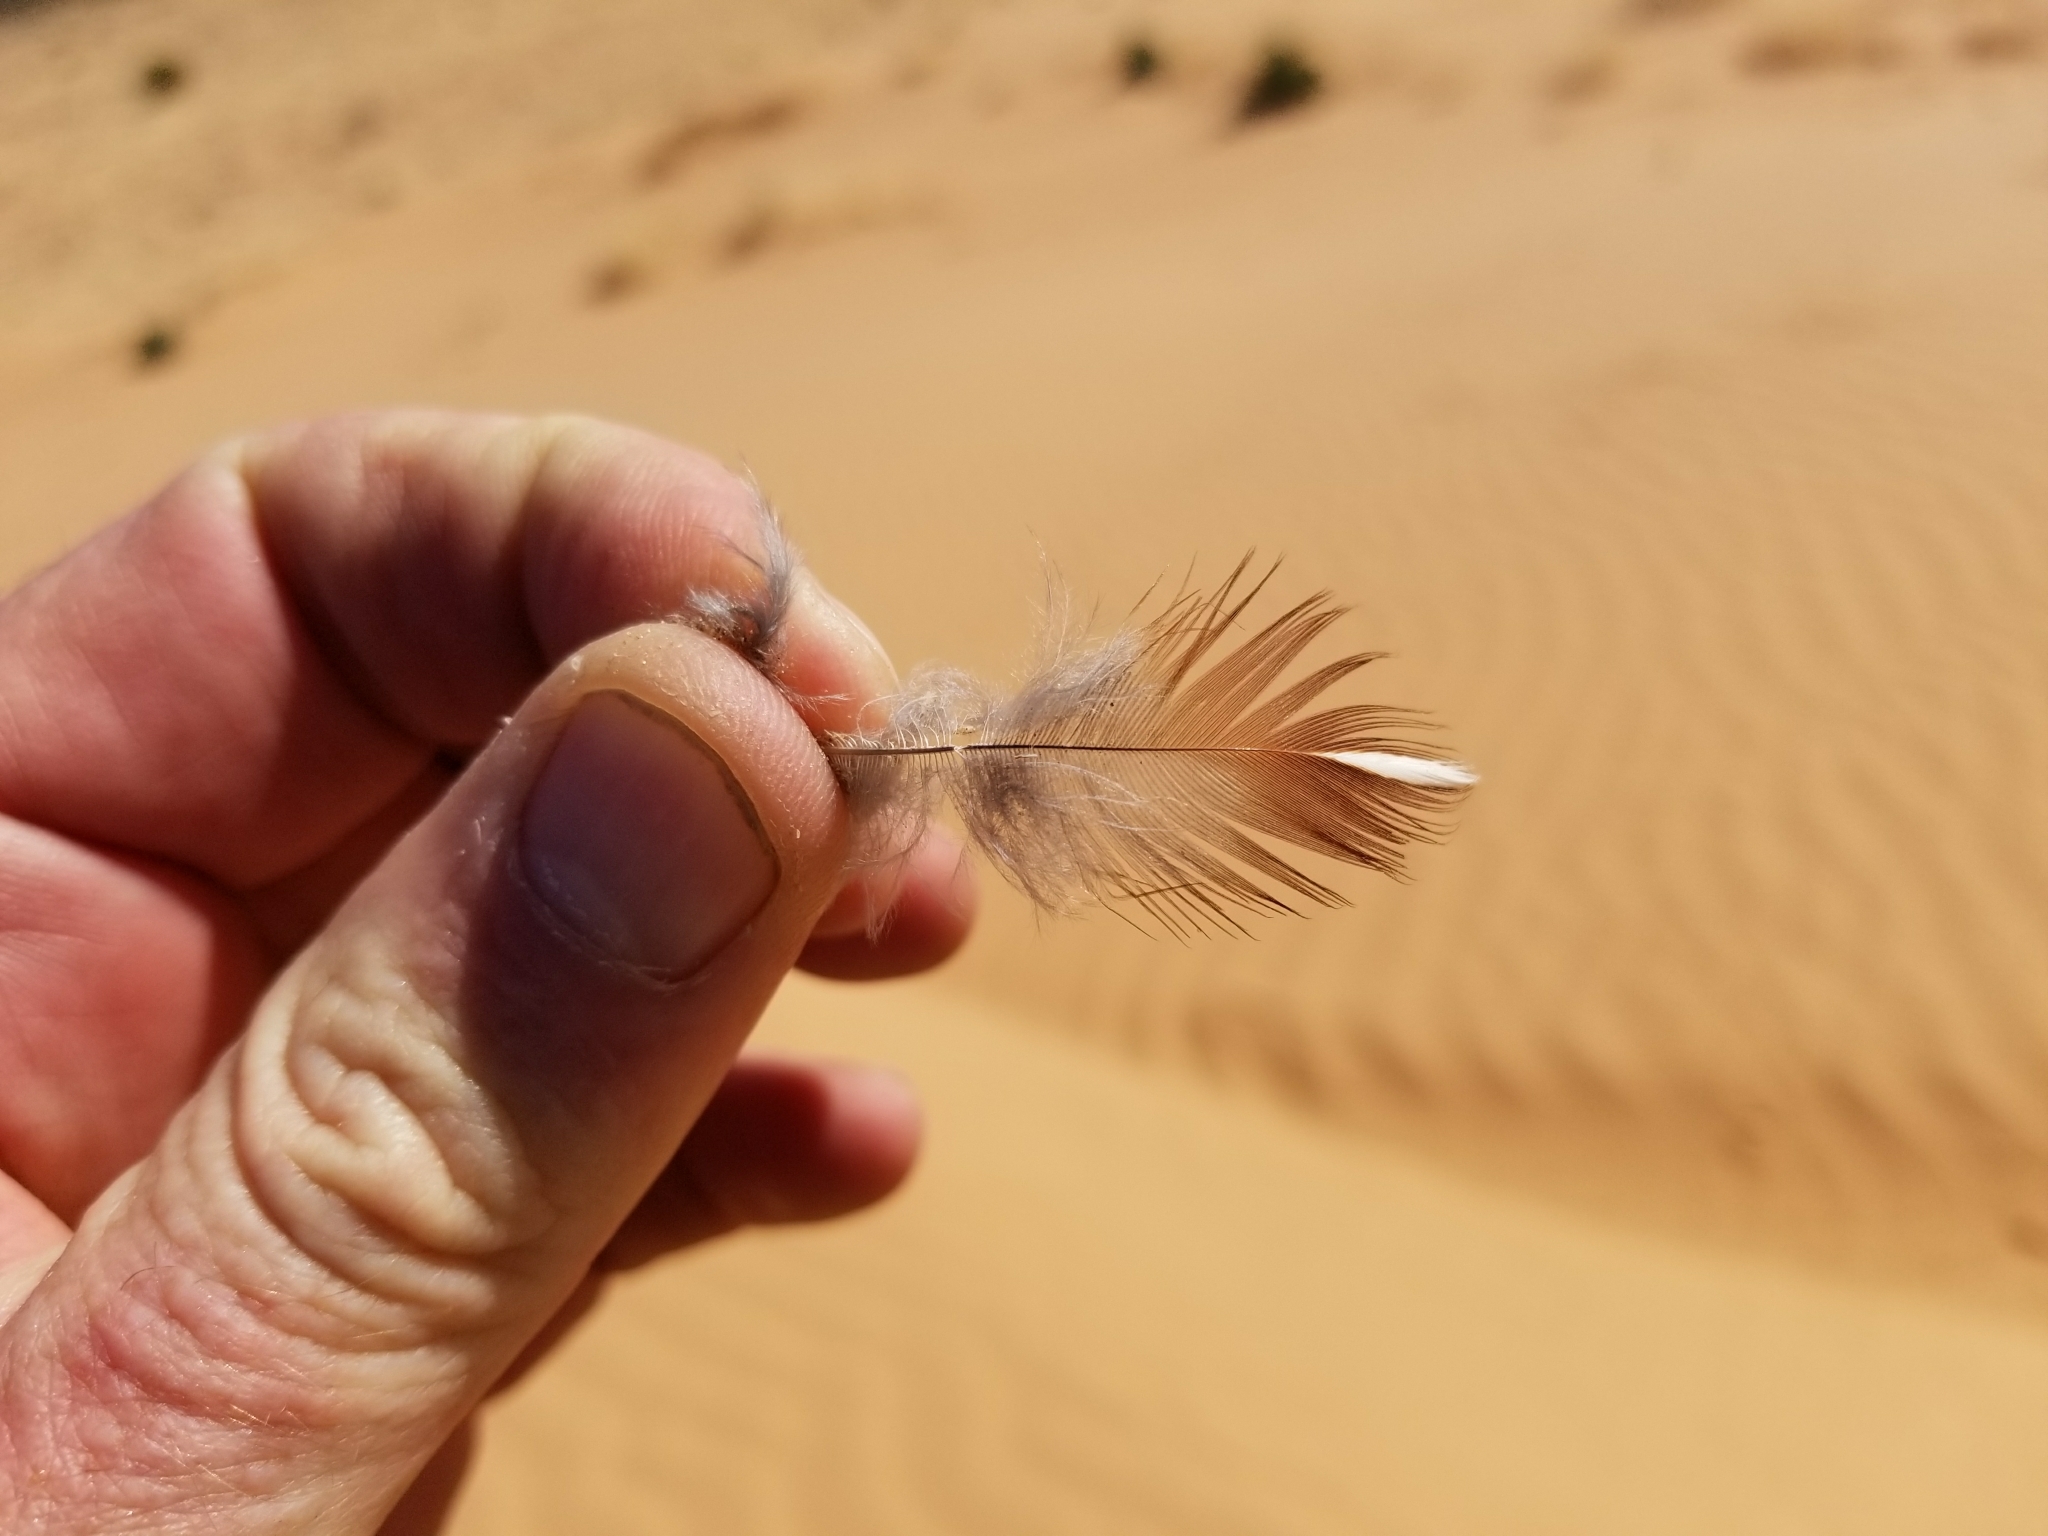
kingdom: Animalia
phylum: Chordata
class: Aves
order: Galliformes
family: Odontophoridae
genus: Callipepla
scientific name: Callipepla gambelii
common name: Gambel's quail
